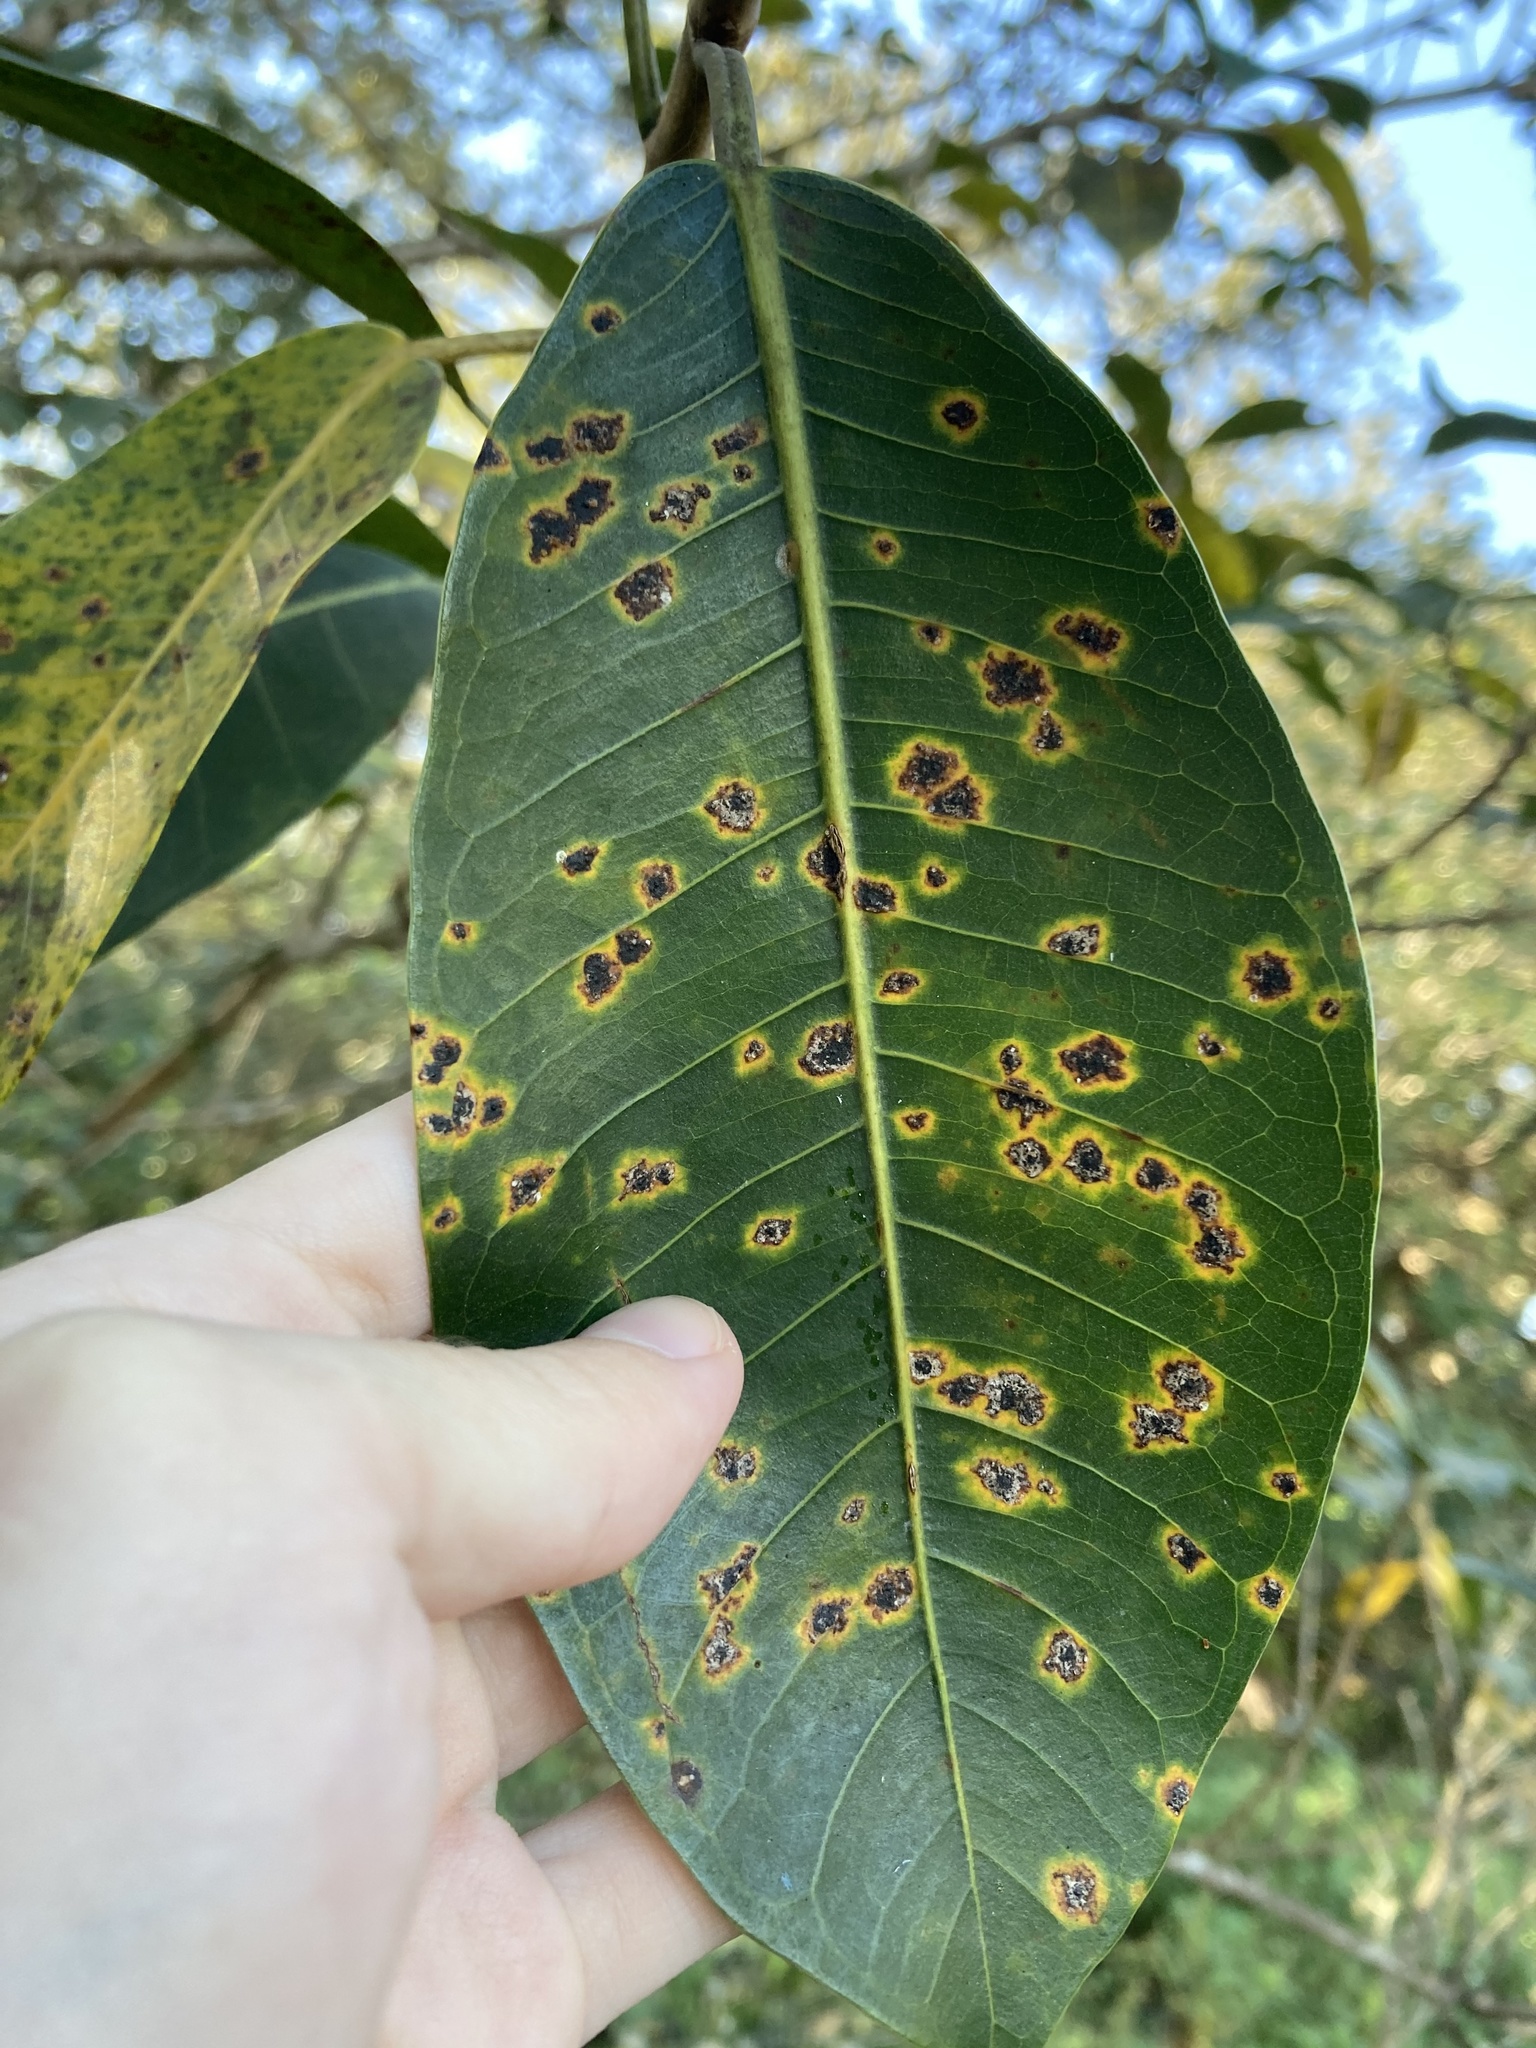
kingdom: Fungi
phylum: Ascomycota
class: Sordariomycetes
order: Phyllachorales
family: Phyllachoraceae
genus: Ophiodothella
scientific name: Ophiodothella fici
